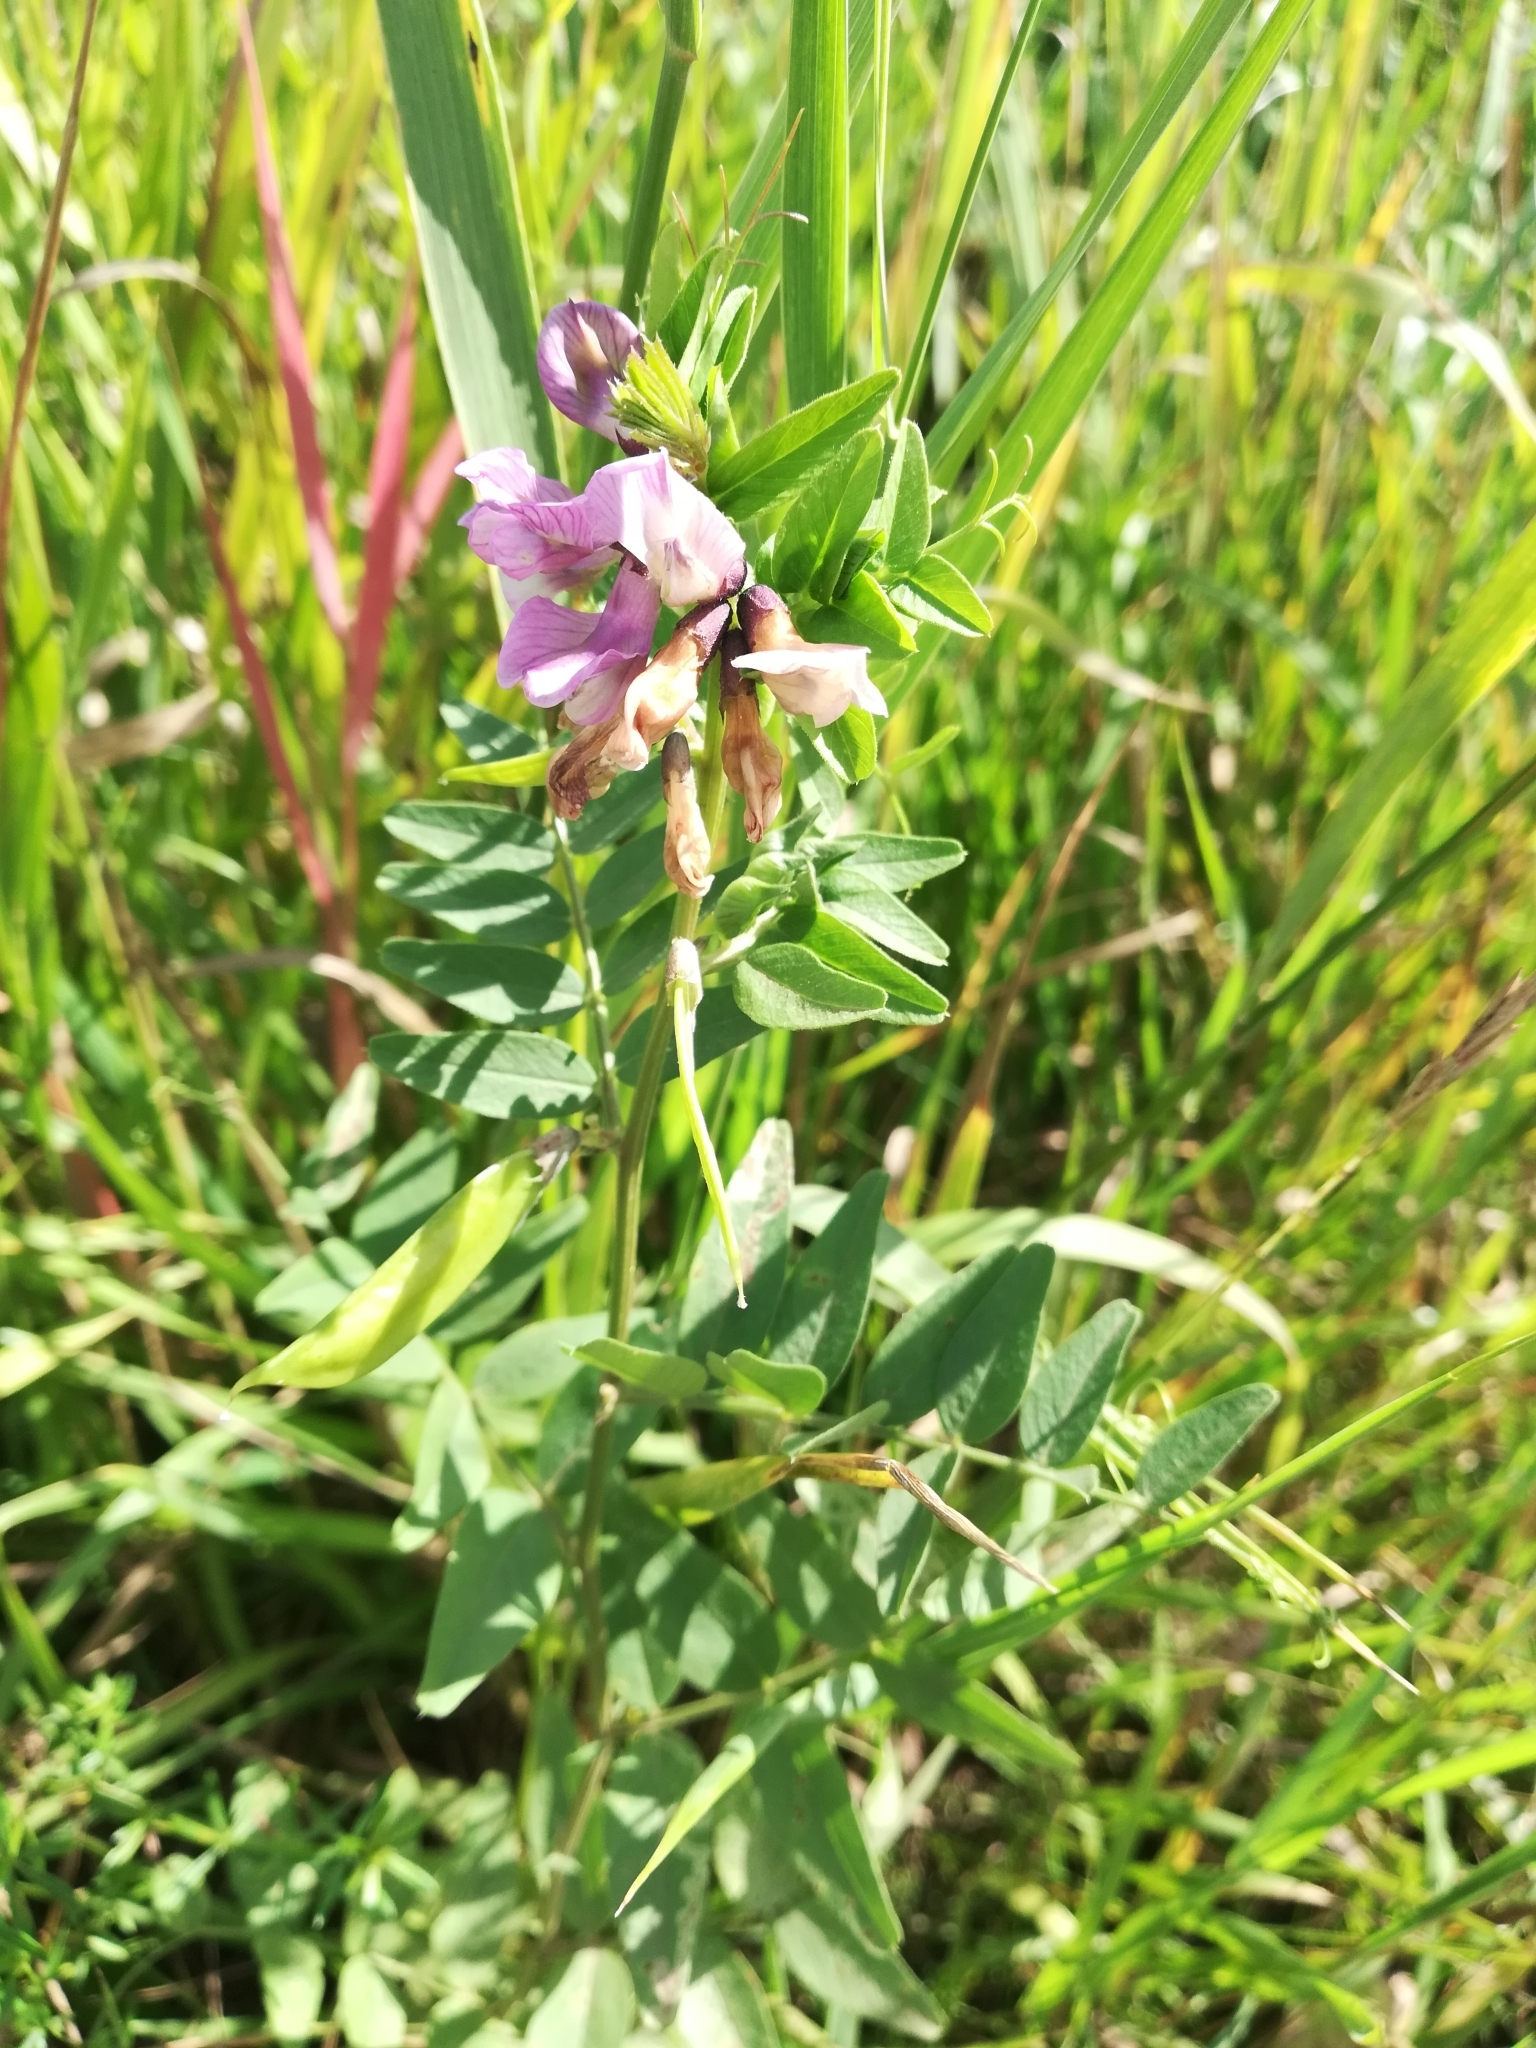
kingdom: Plantae
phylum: Tracheophyta
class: Magnoliopsida
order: Fabales
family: Fabaceae
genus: Vicia
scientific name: Vicia sepium
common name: Bush vetch
